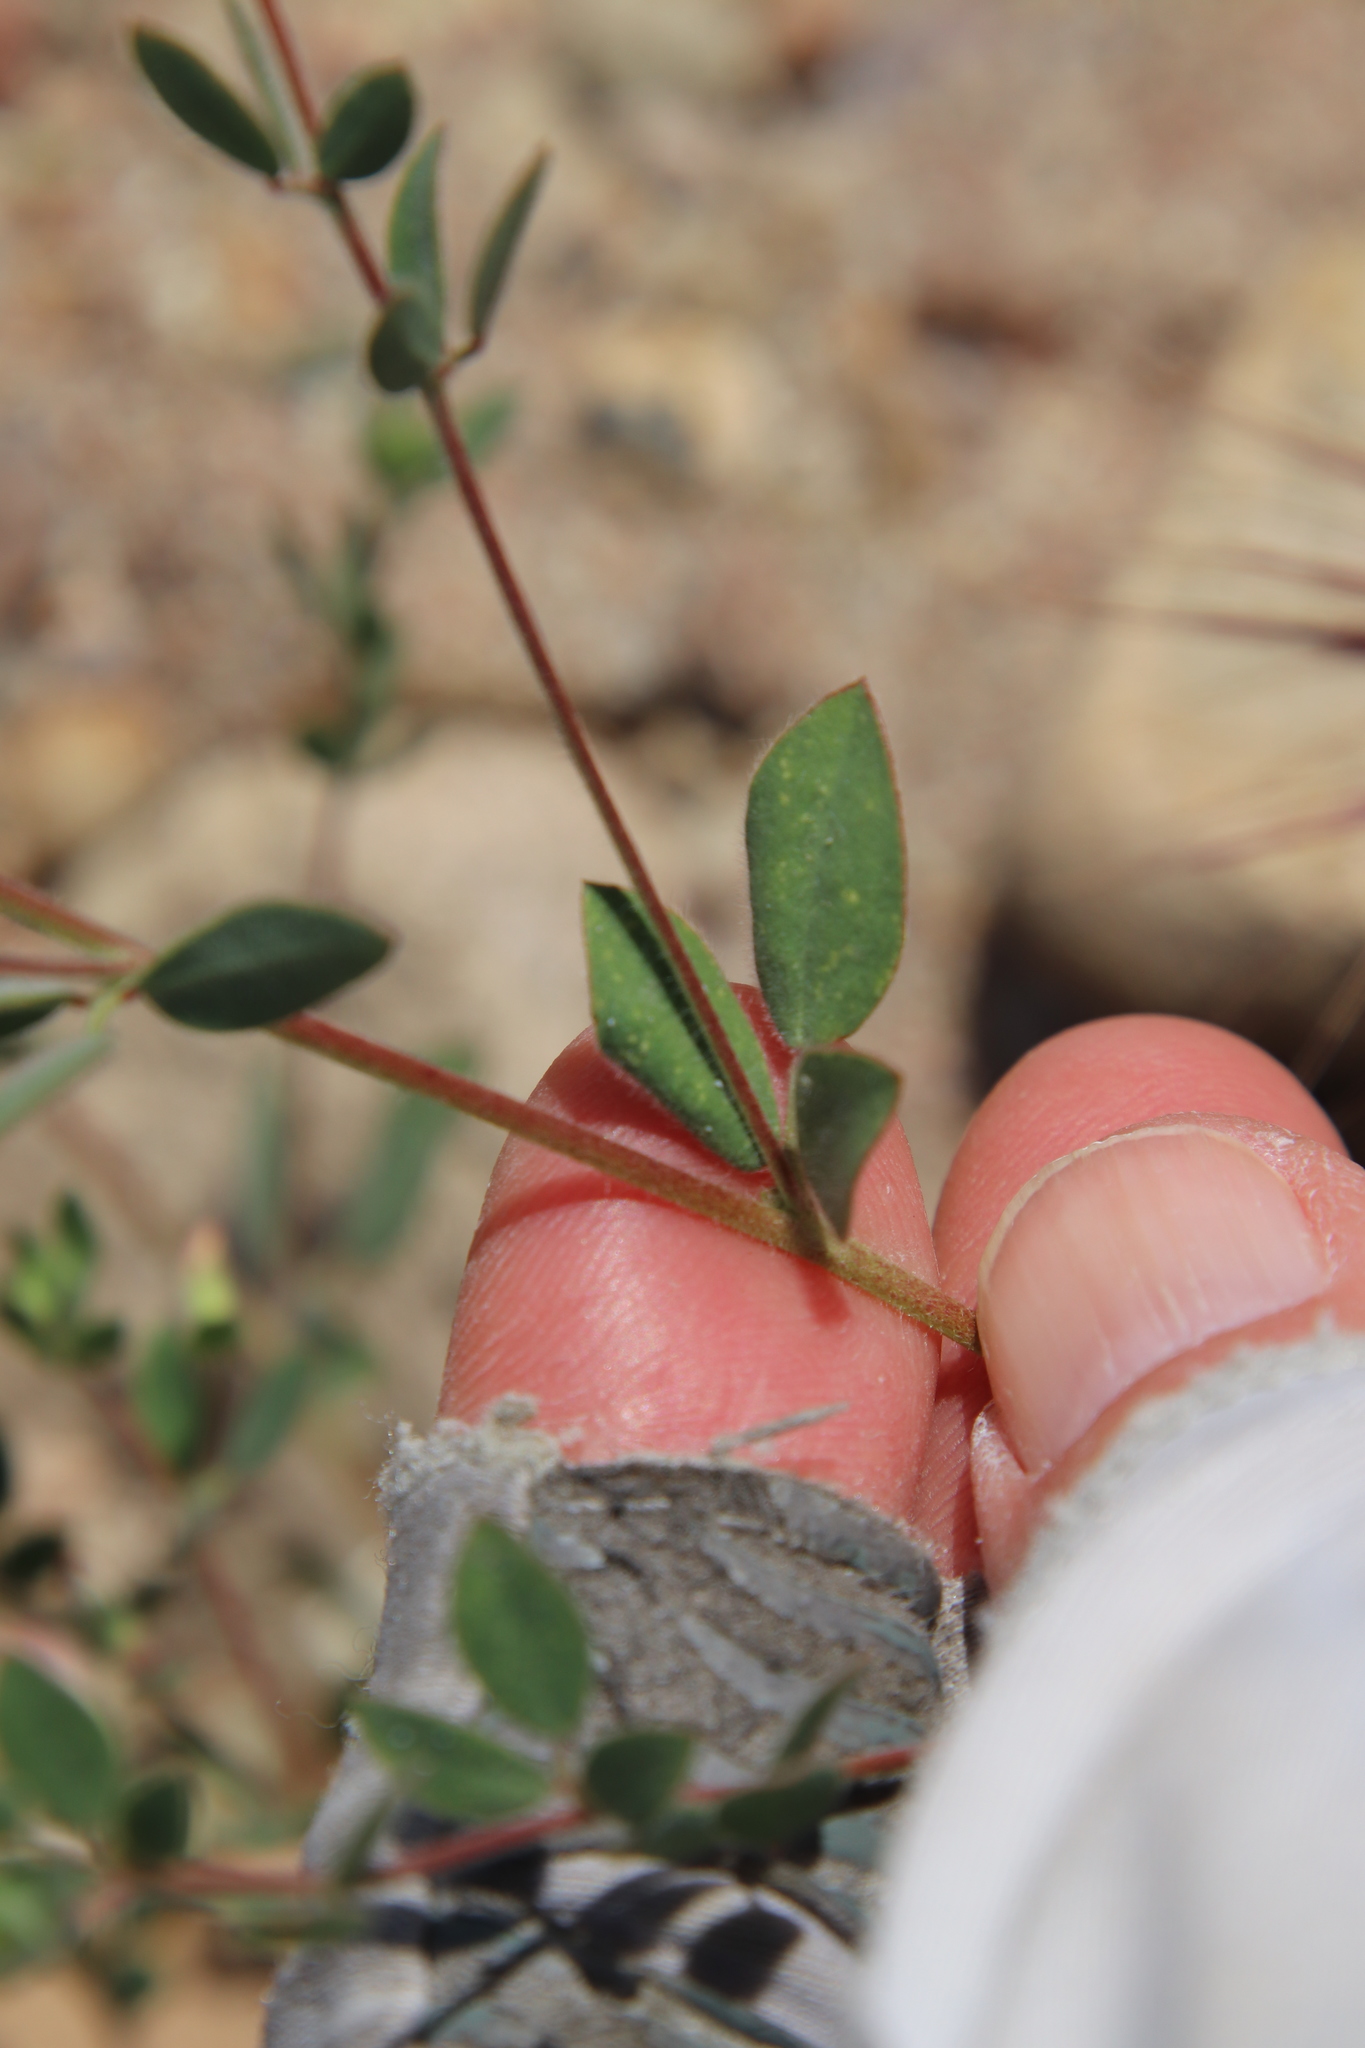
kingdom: Plantae
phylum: Tracheophyta
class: Magnoliopsida
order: Fabales
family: Fabaceae
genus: Acmispon
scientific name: Acmispon americanus
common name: American bird's-foot trefoil
